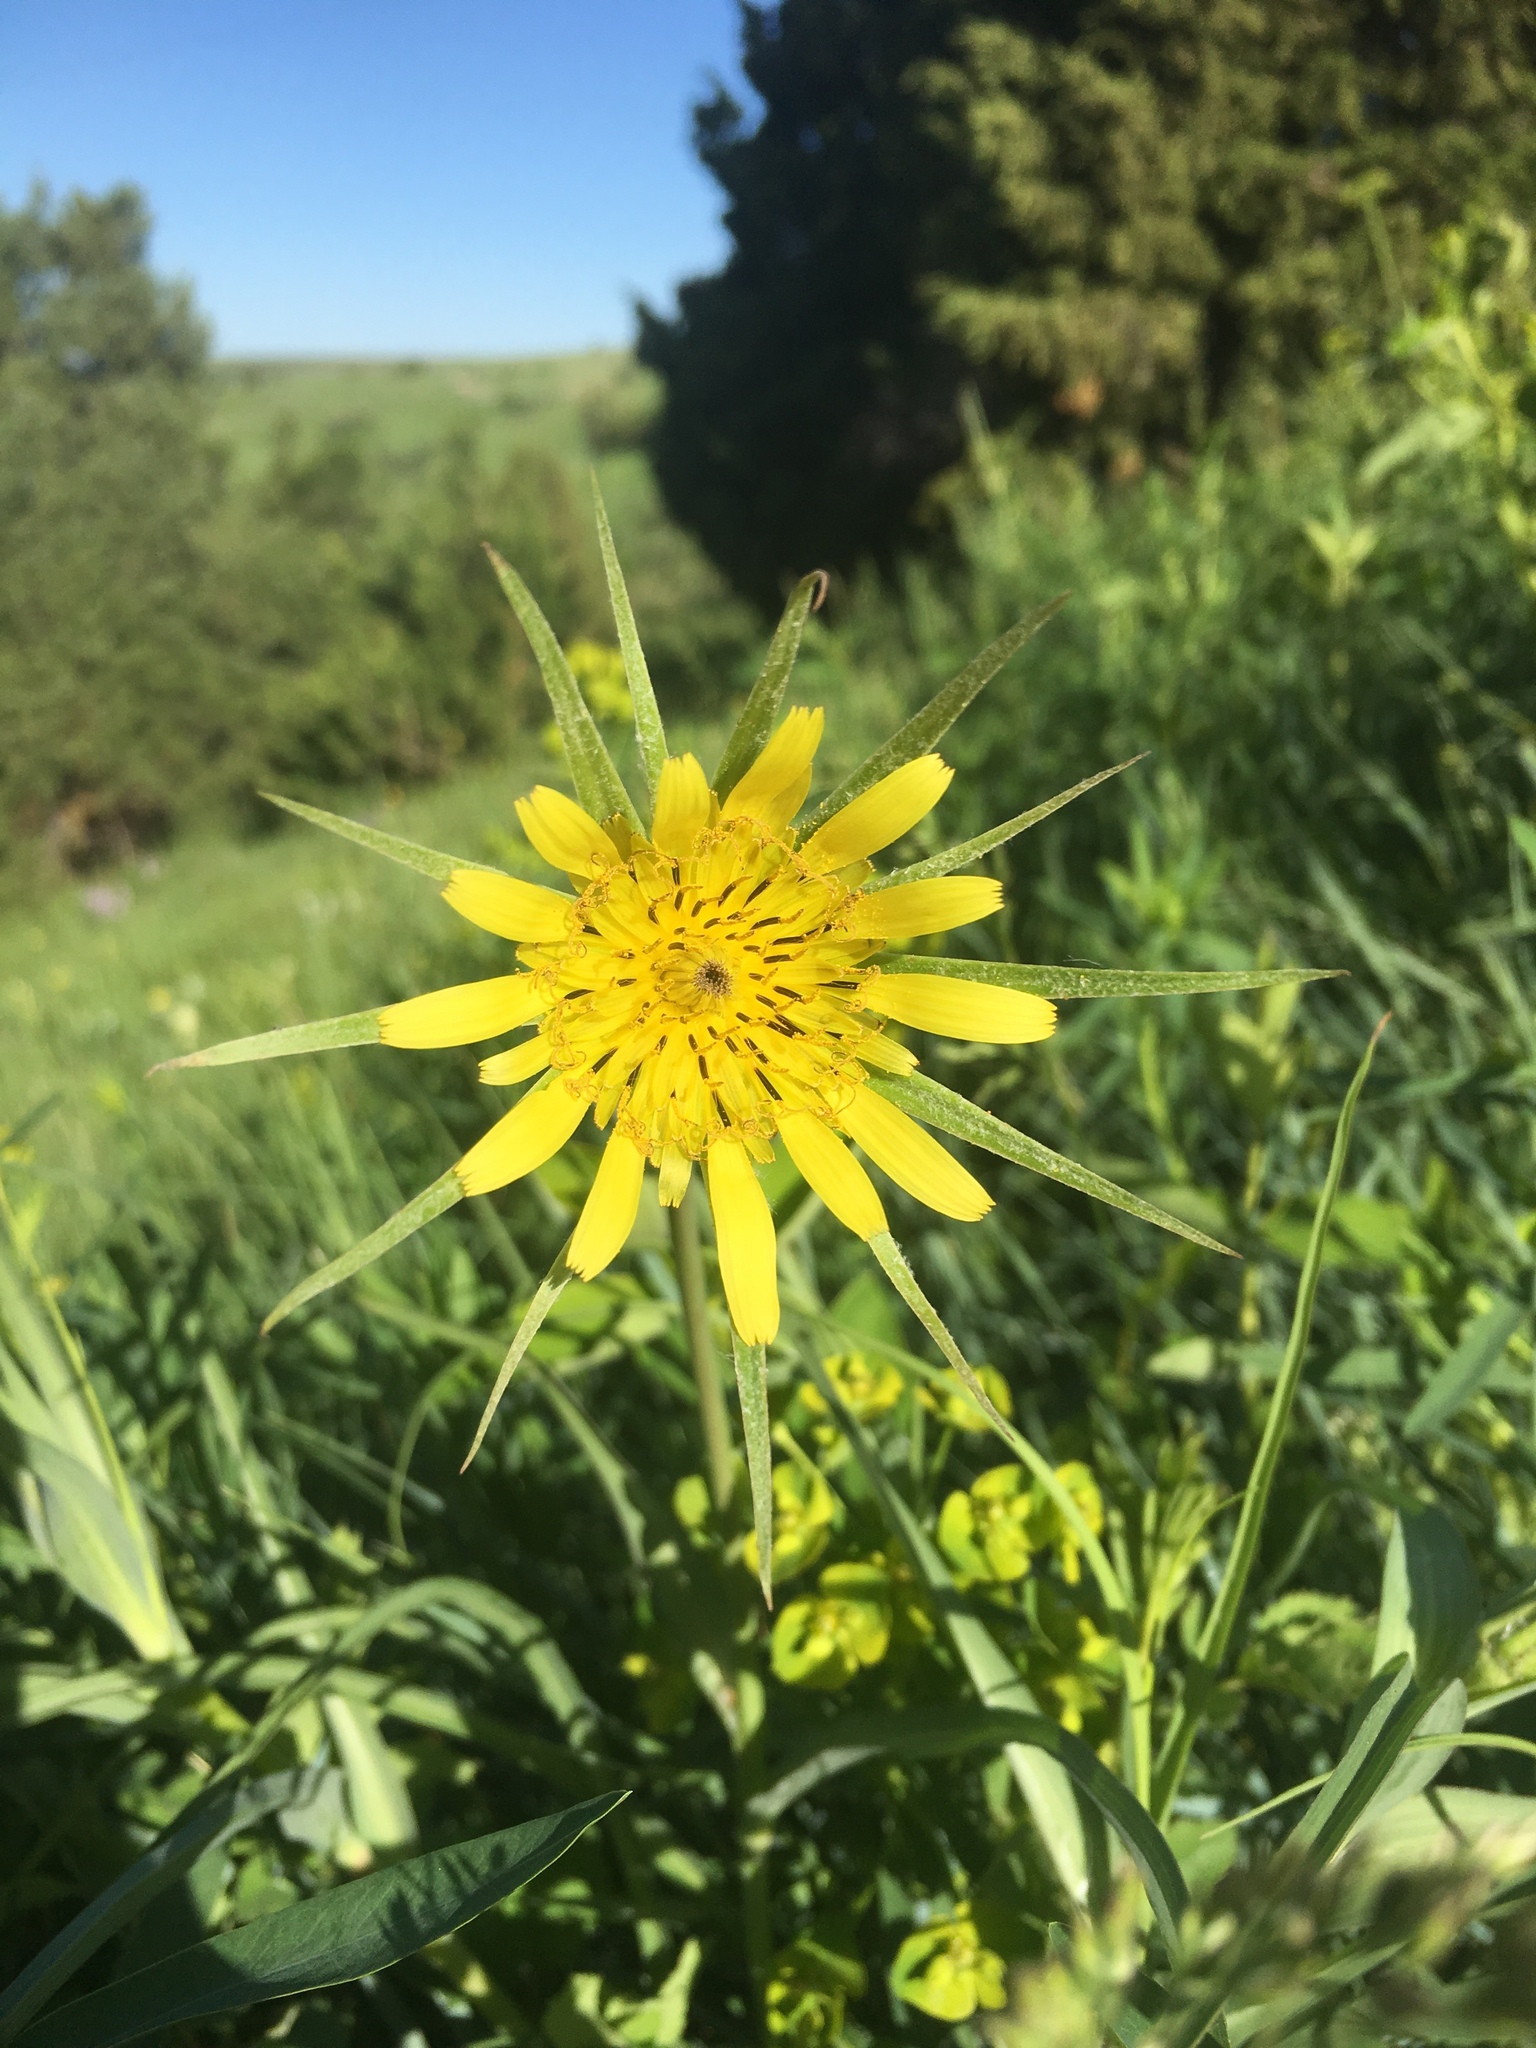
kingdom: Plantae
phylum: Tracheophyta
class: Magnoliopsida
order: Asterales
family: Asteraceae
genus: Tragopogon
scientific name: Tragopogon dubius
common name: Yellow salsify
